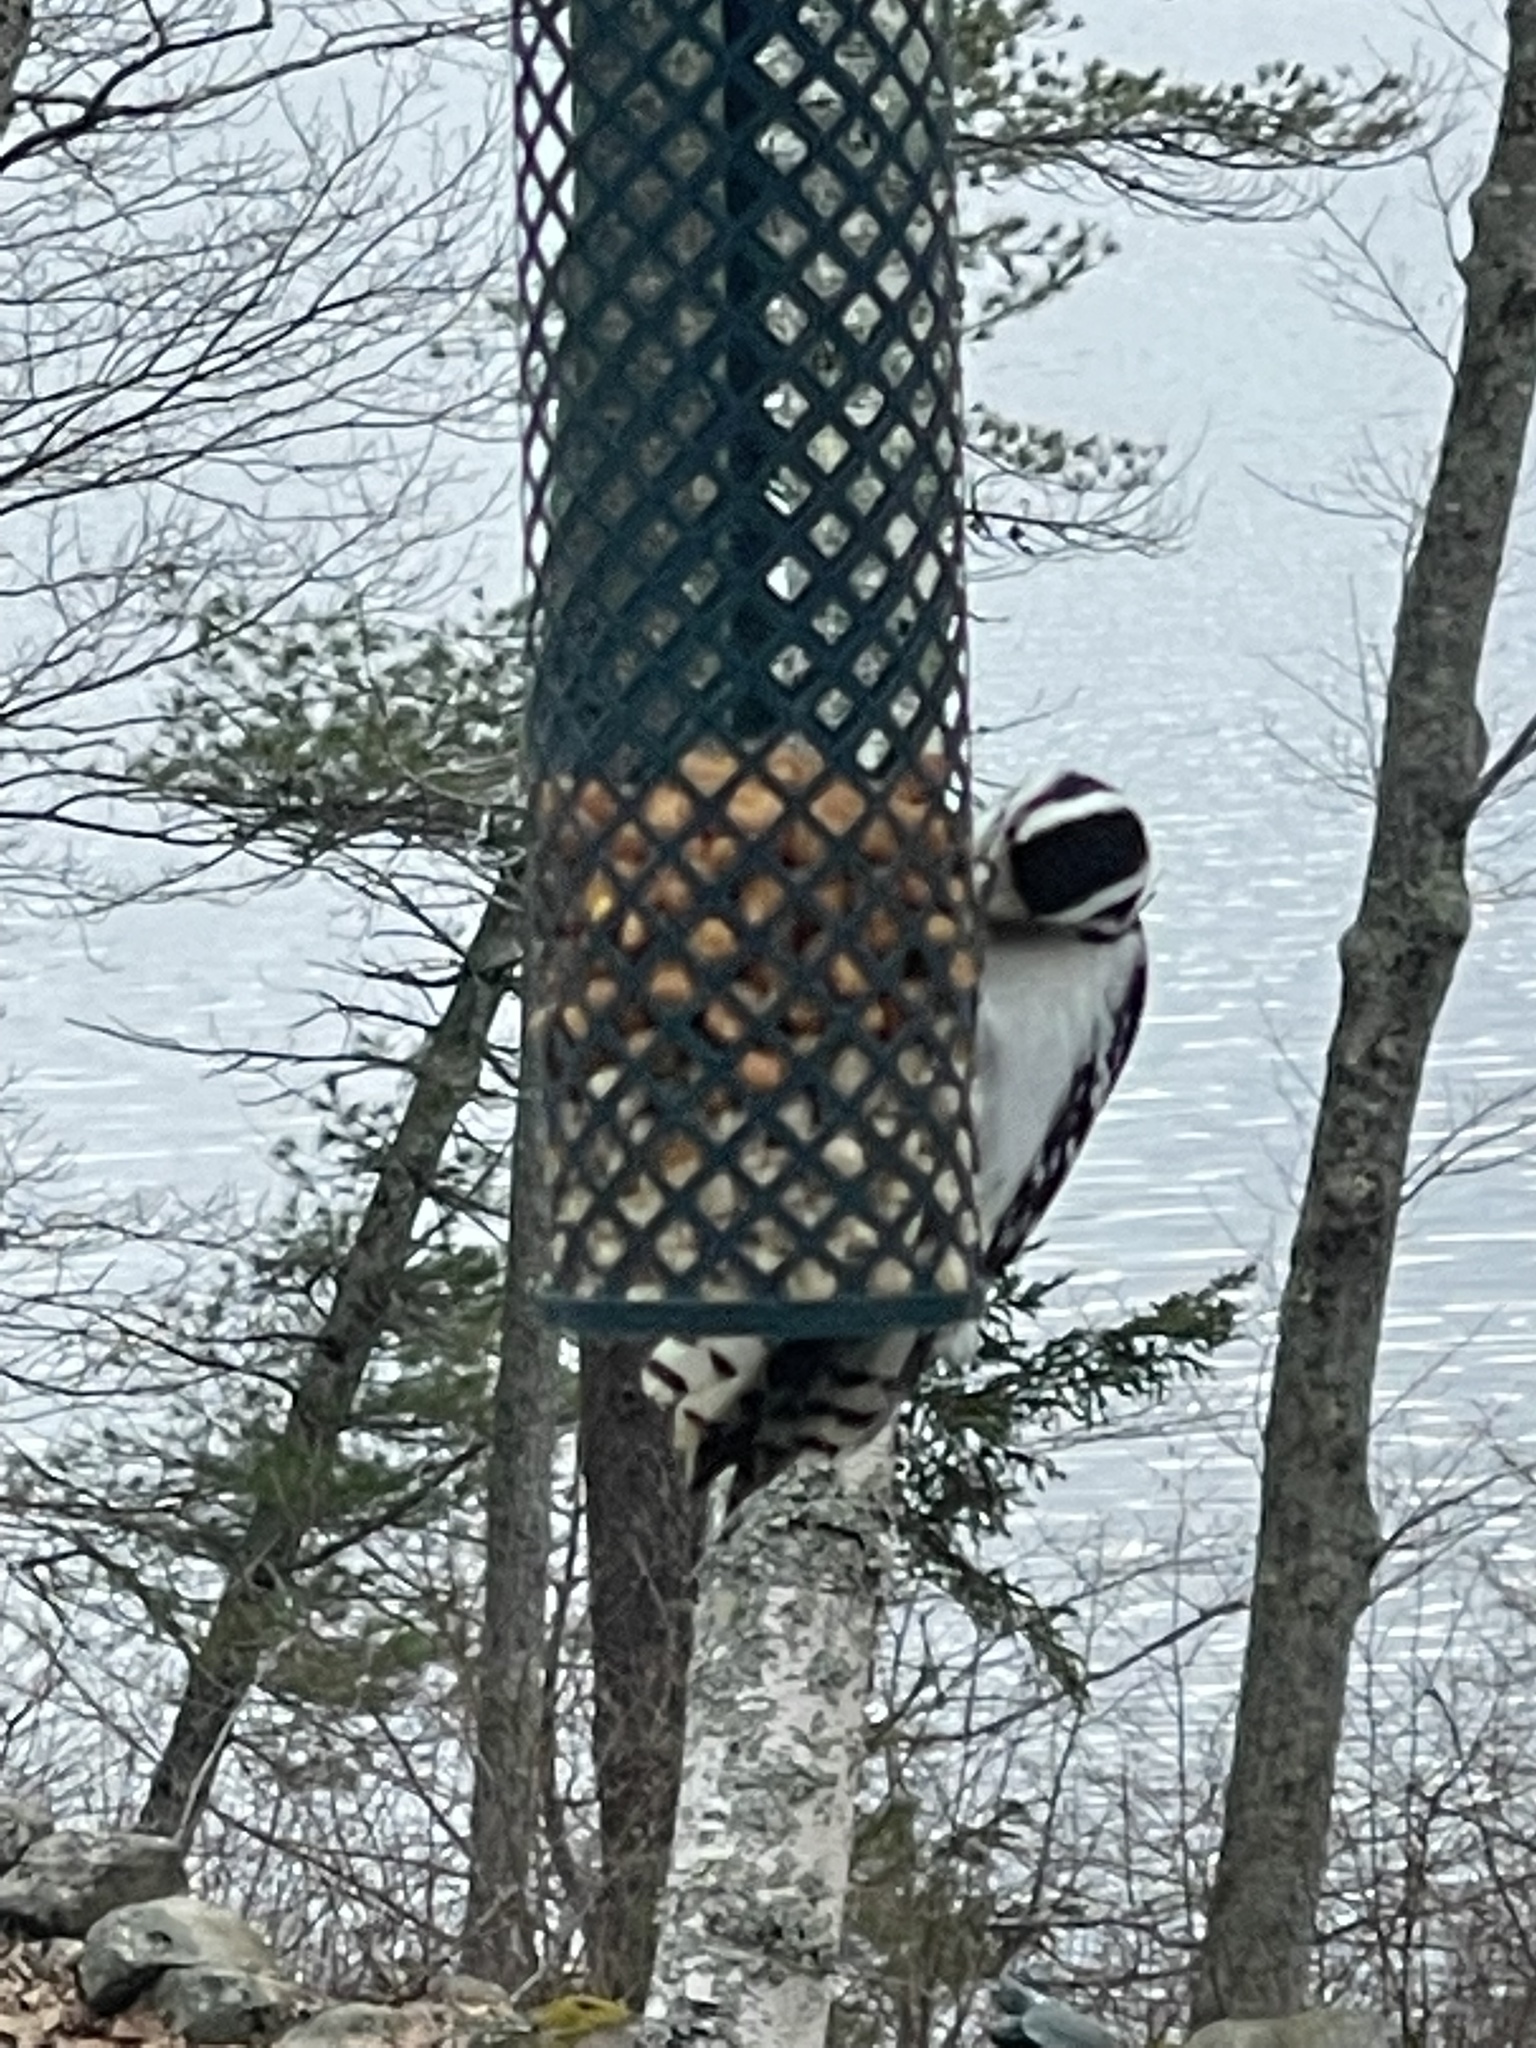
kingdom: Animalia
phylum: Chordata
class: Aves
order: Piciformes
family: Picidae
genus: Dryobates
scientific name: Dryobates pubescens
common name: Downy woodpecker
